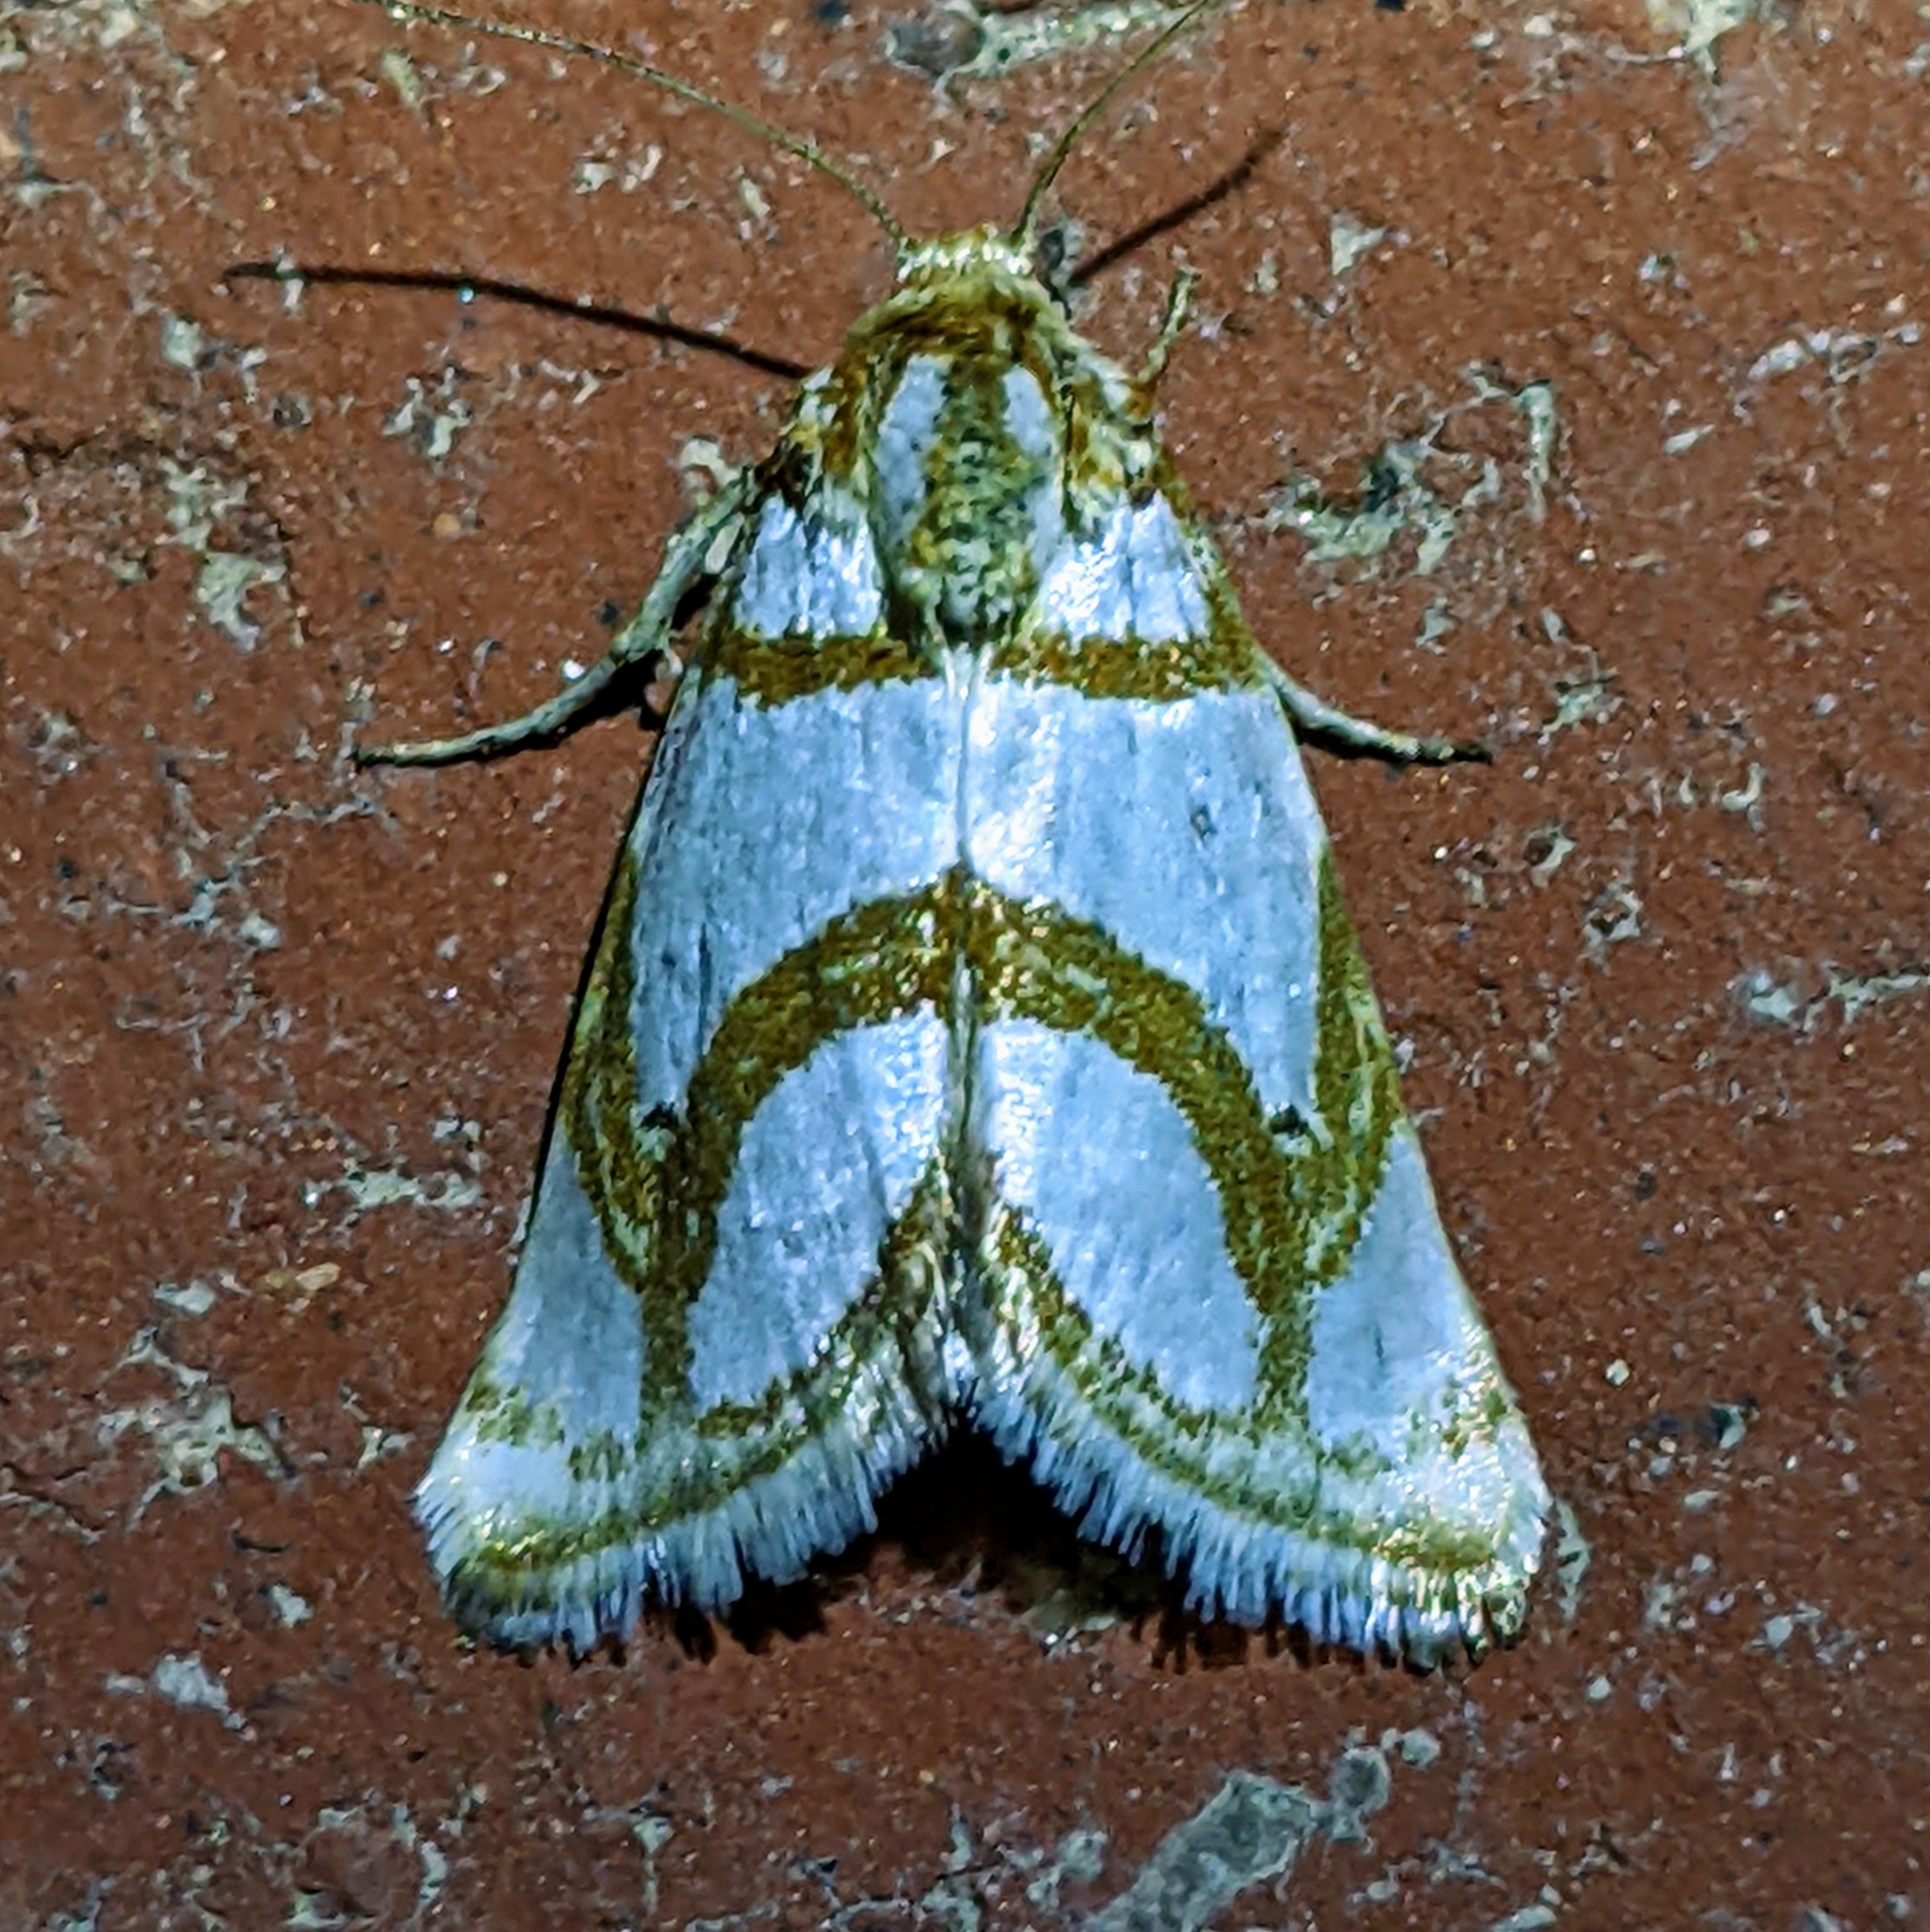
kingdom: Animalia
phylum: Arthropoda
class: Insecta
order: Lepidoptera
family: Noctuidae
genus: Argentostiria
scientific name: Argentostiria koebelei
